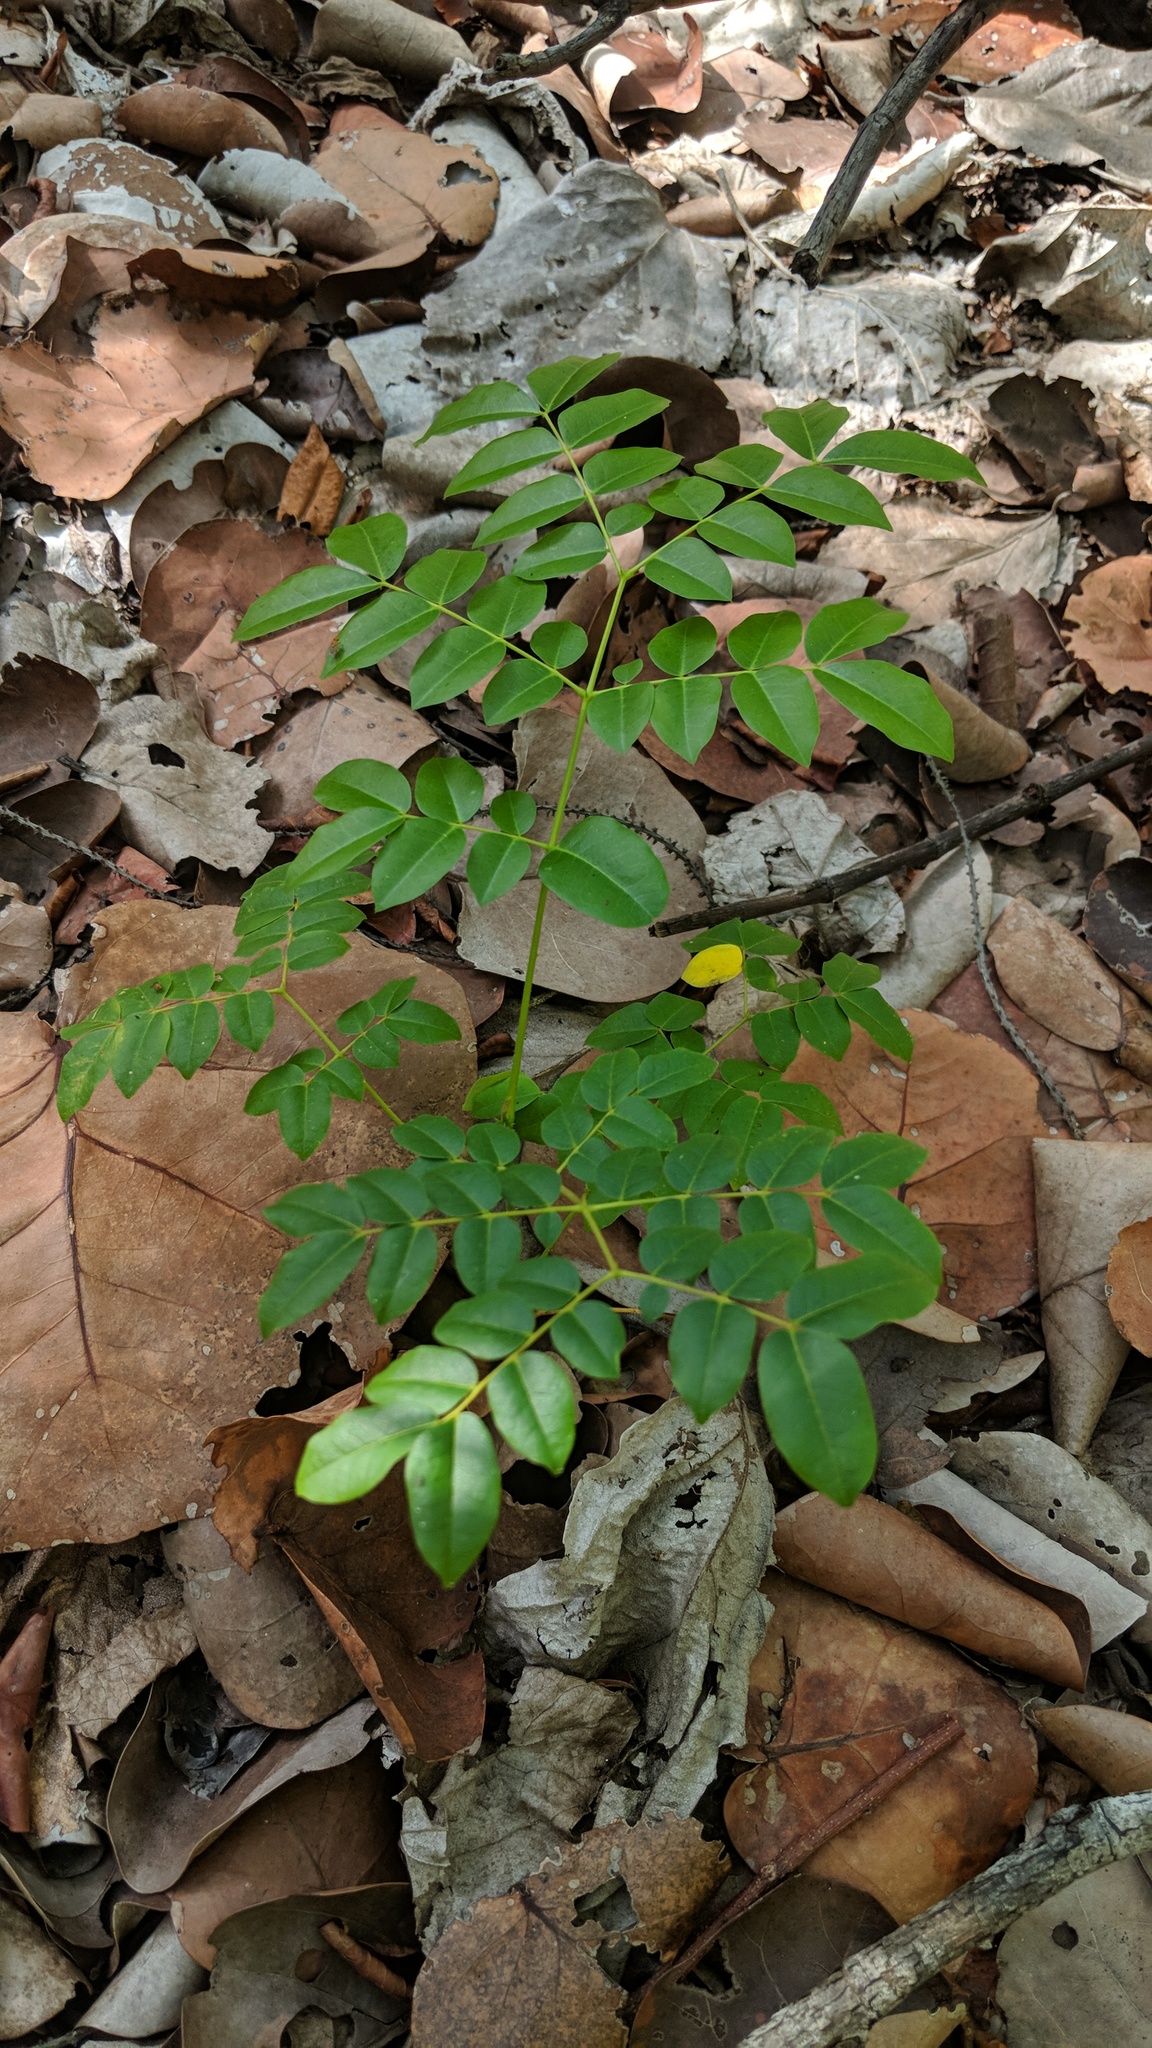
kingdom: Plantae
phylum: Tracheophyta
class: Magnoliopsida
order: Fabales
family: Fabaceae
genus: Guilandina
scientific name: Guilandina bonduc
